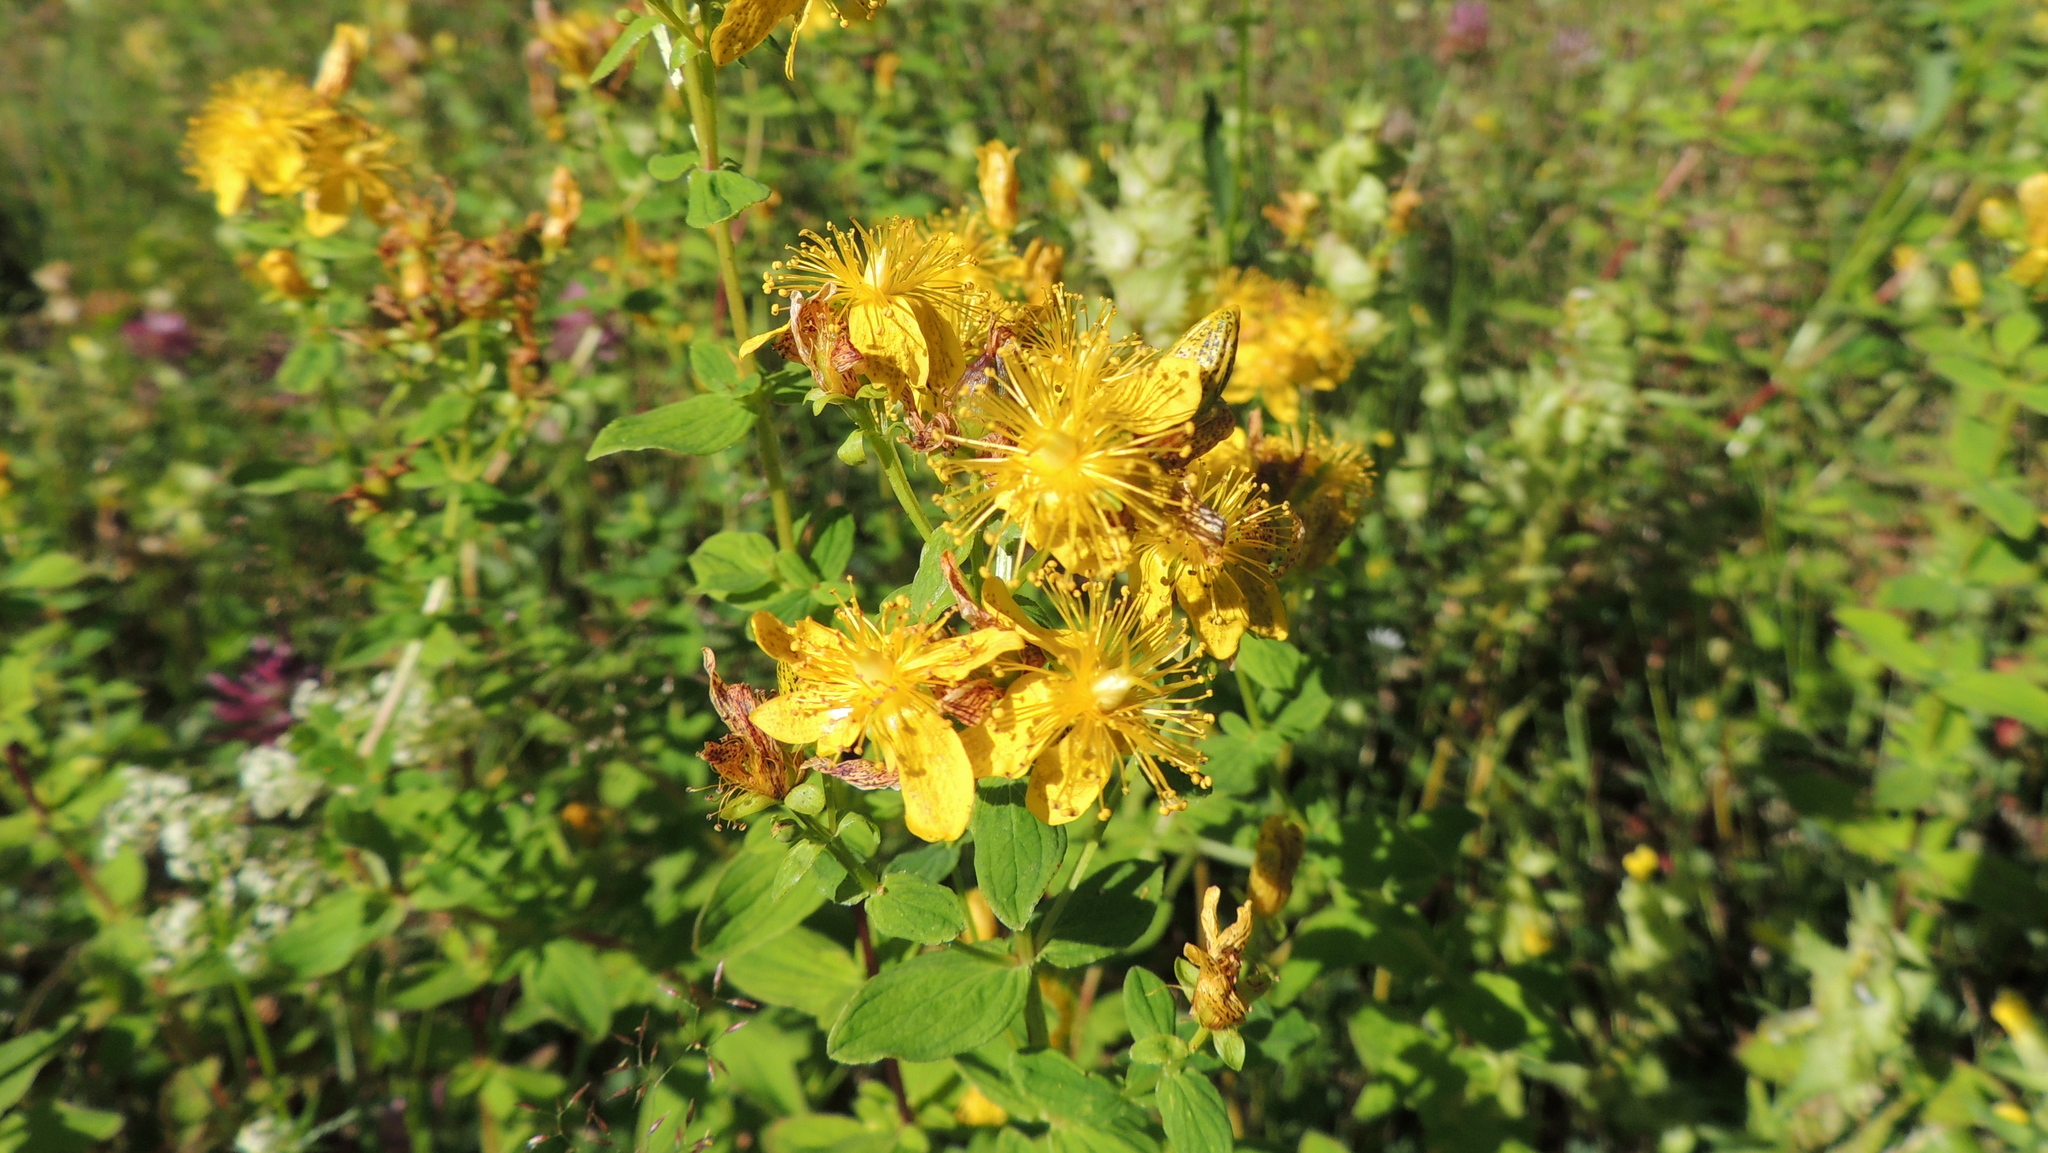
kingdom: Plantae
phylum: Tracheophyta
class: Magnoliopsida
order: Malpighiales
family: Hypericaceae
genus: Hypericum
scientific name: Hypericum maculatum
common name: Imperforate st. john's-wort
